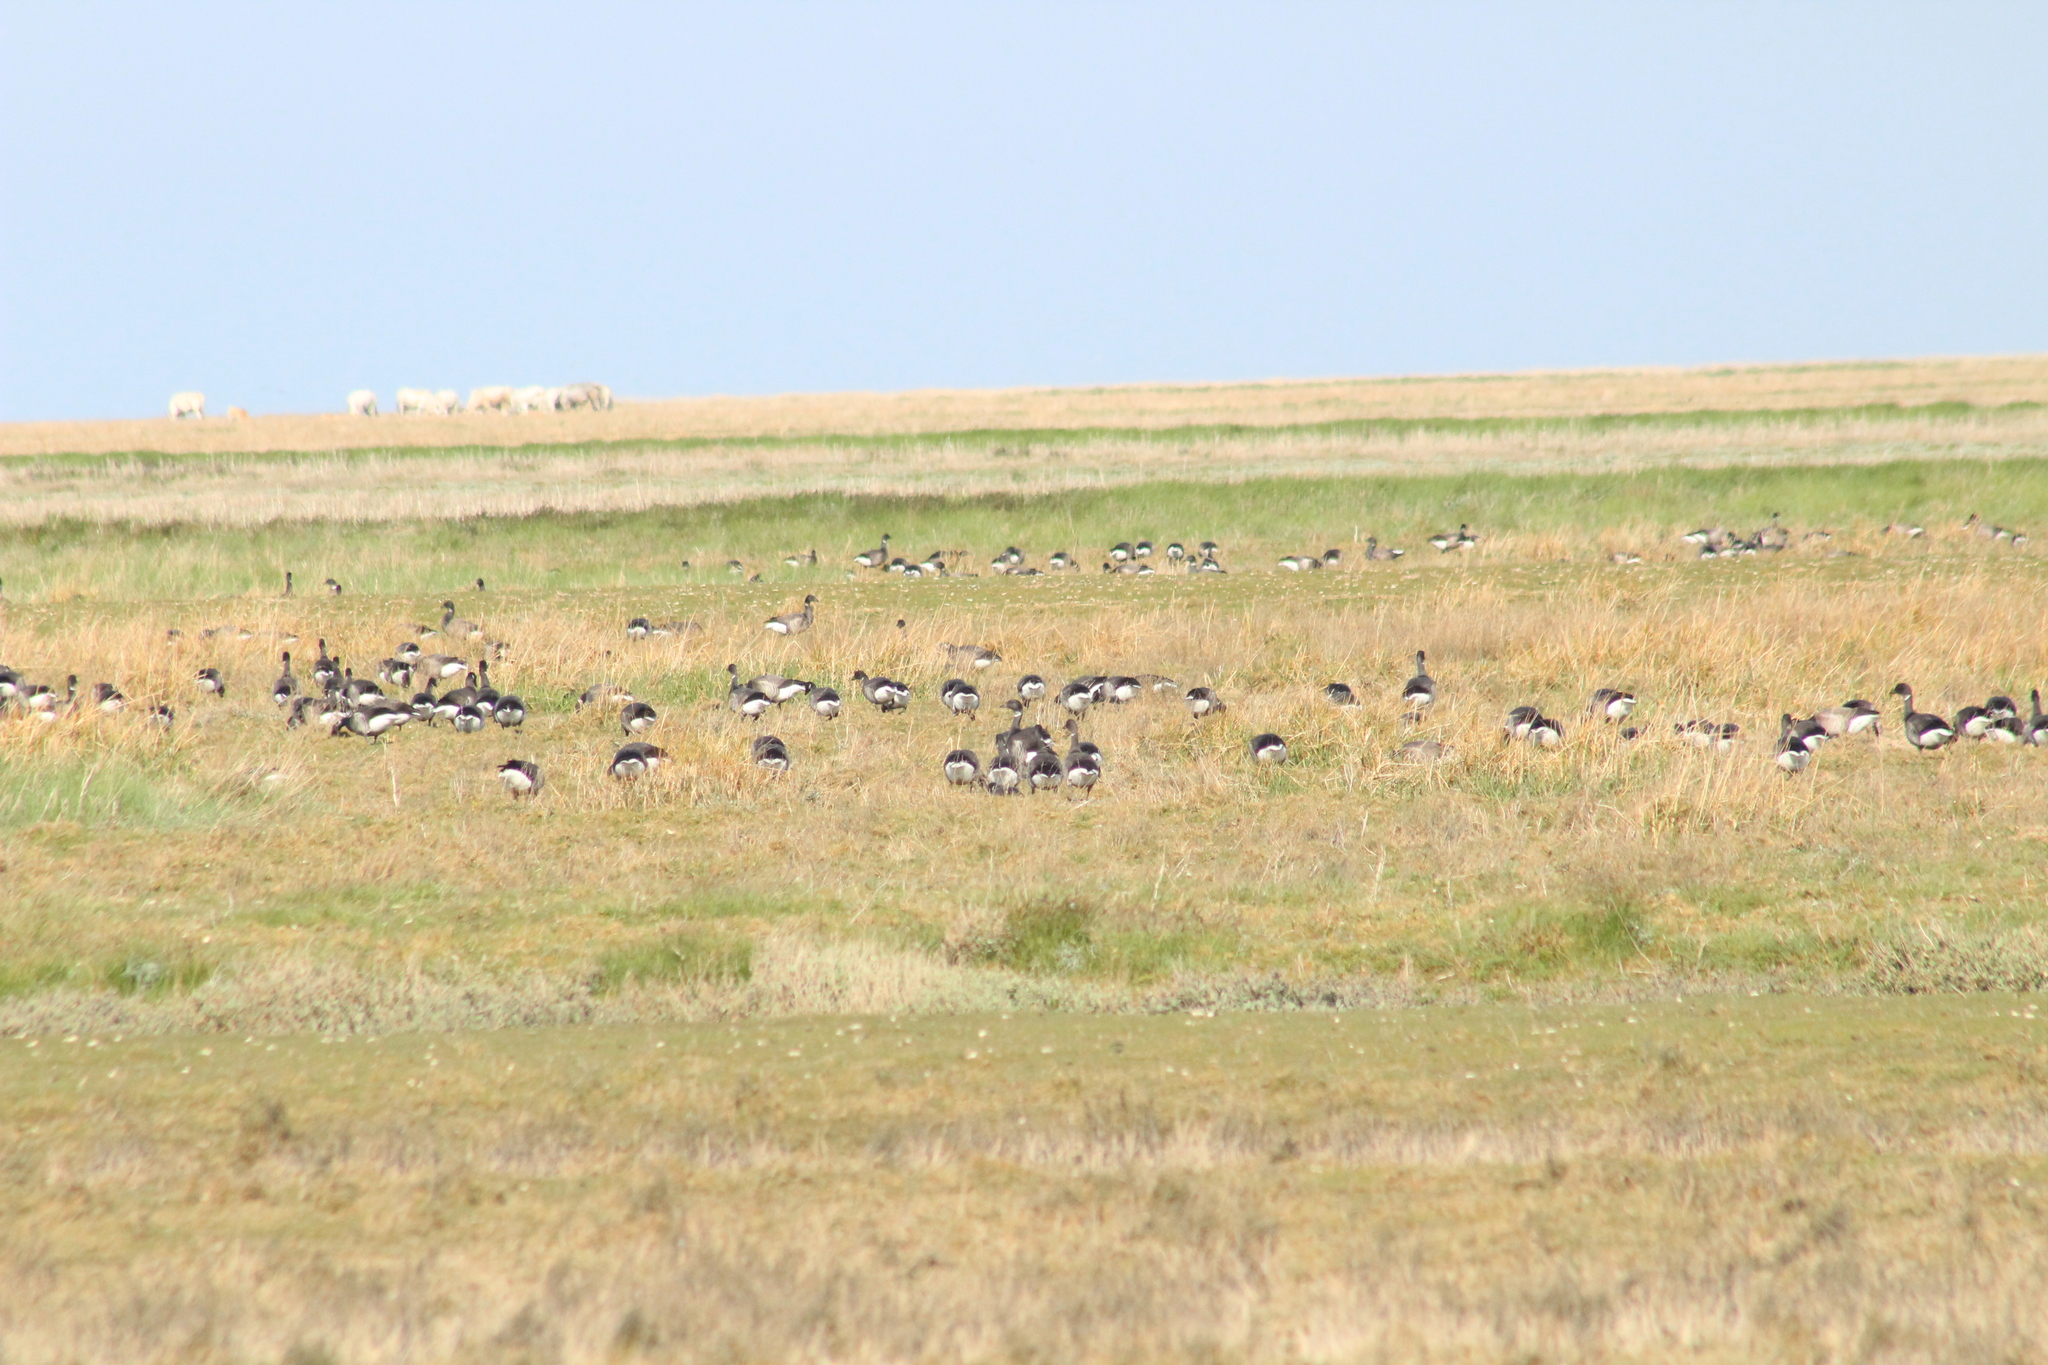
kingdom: Animalia
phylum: Chordata
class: Aves
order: Anseriformes
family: Anatidae
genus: Branta
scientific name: Branta bernicla
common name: Brant goose
